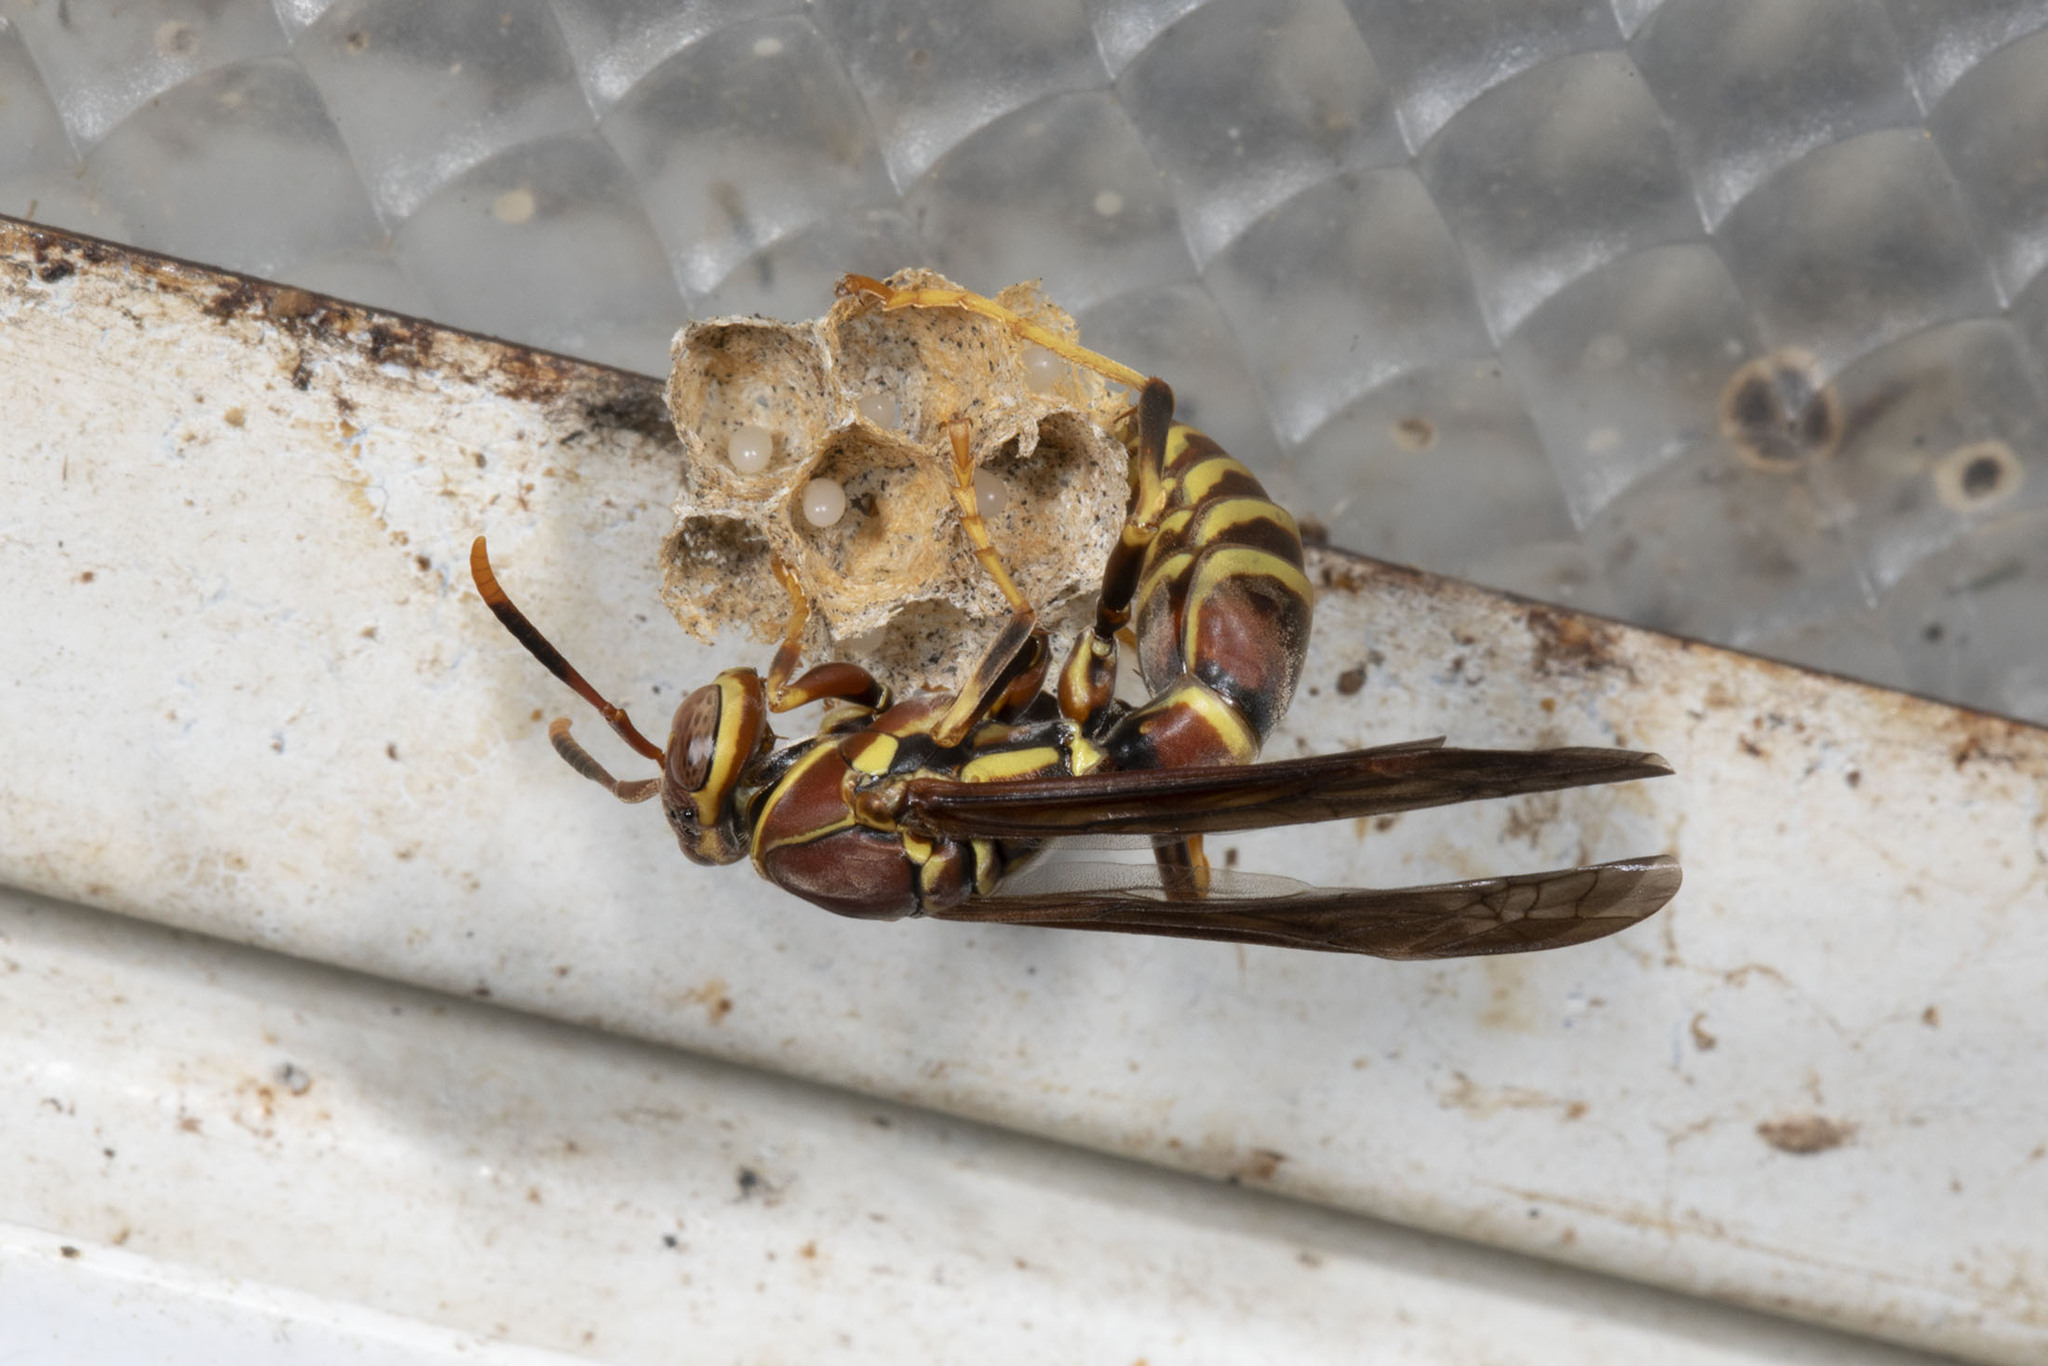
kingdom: Animalia
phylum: Arthropoda
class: Insecta
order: Hymenoptera
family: Eumenidae
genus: Polistes
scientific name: Polistes exclamans
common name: Paper wasp
